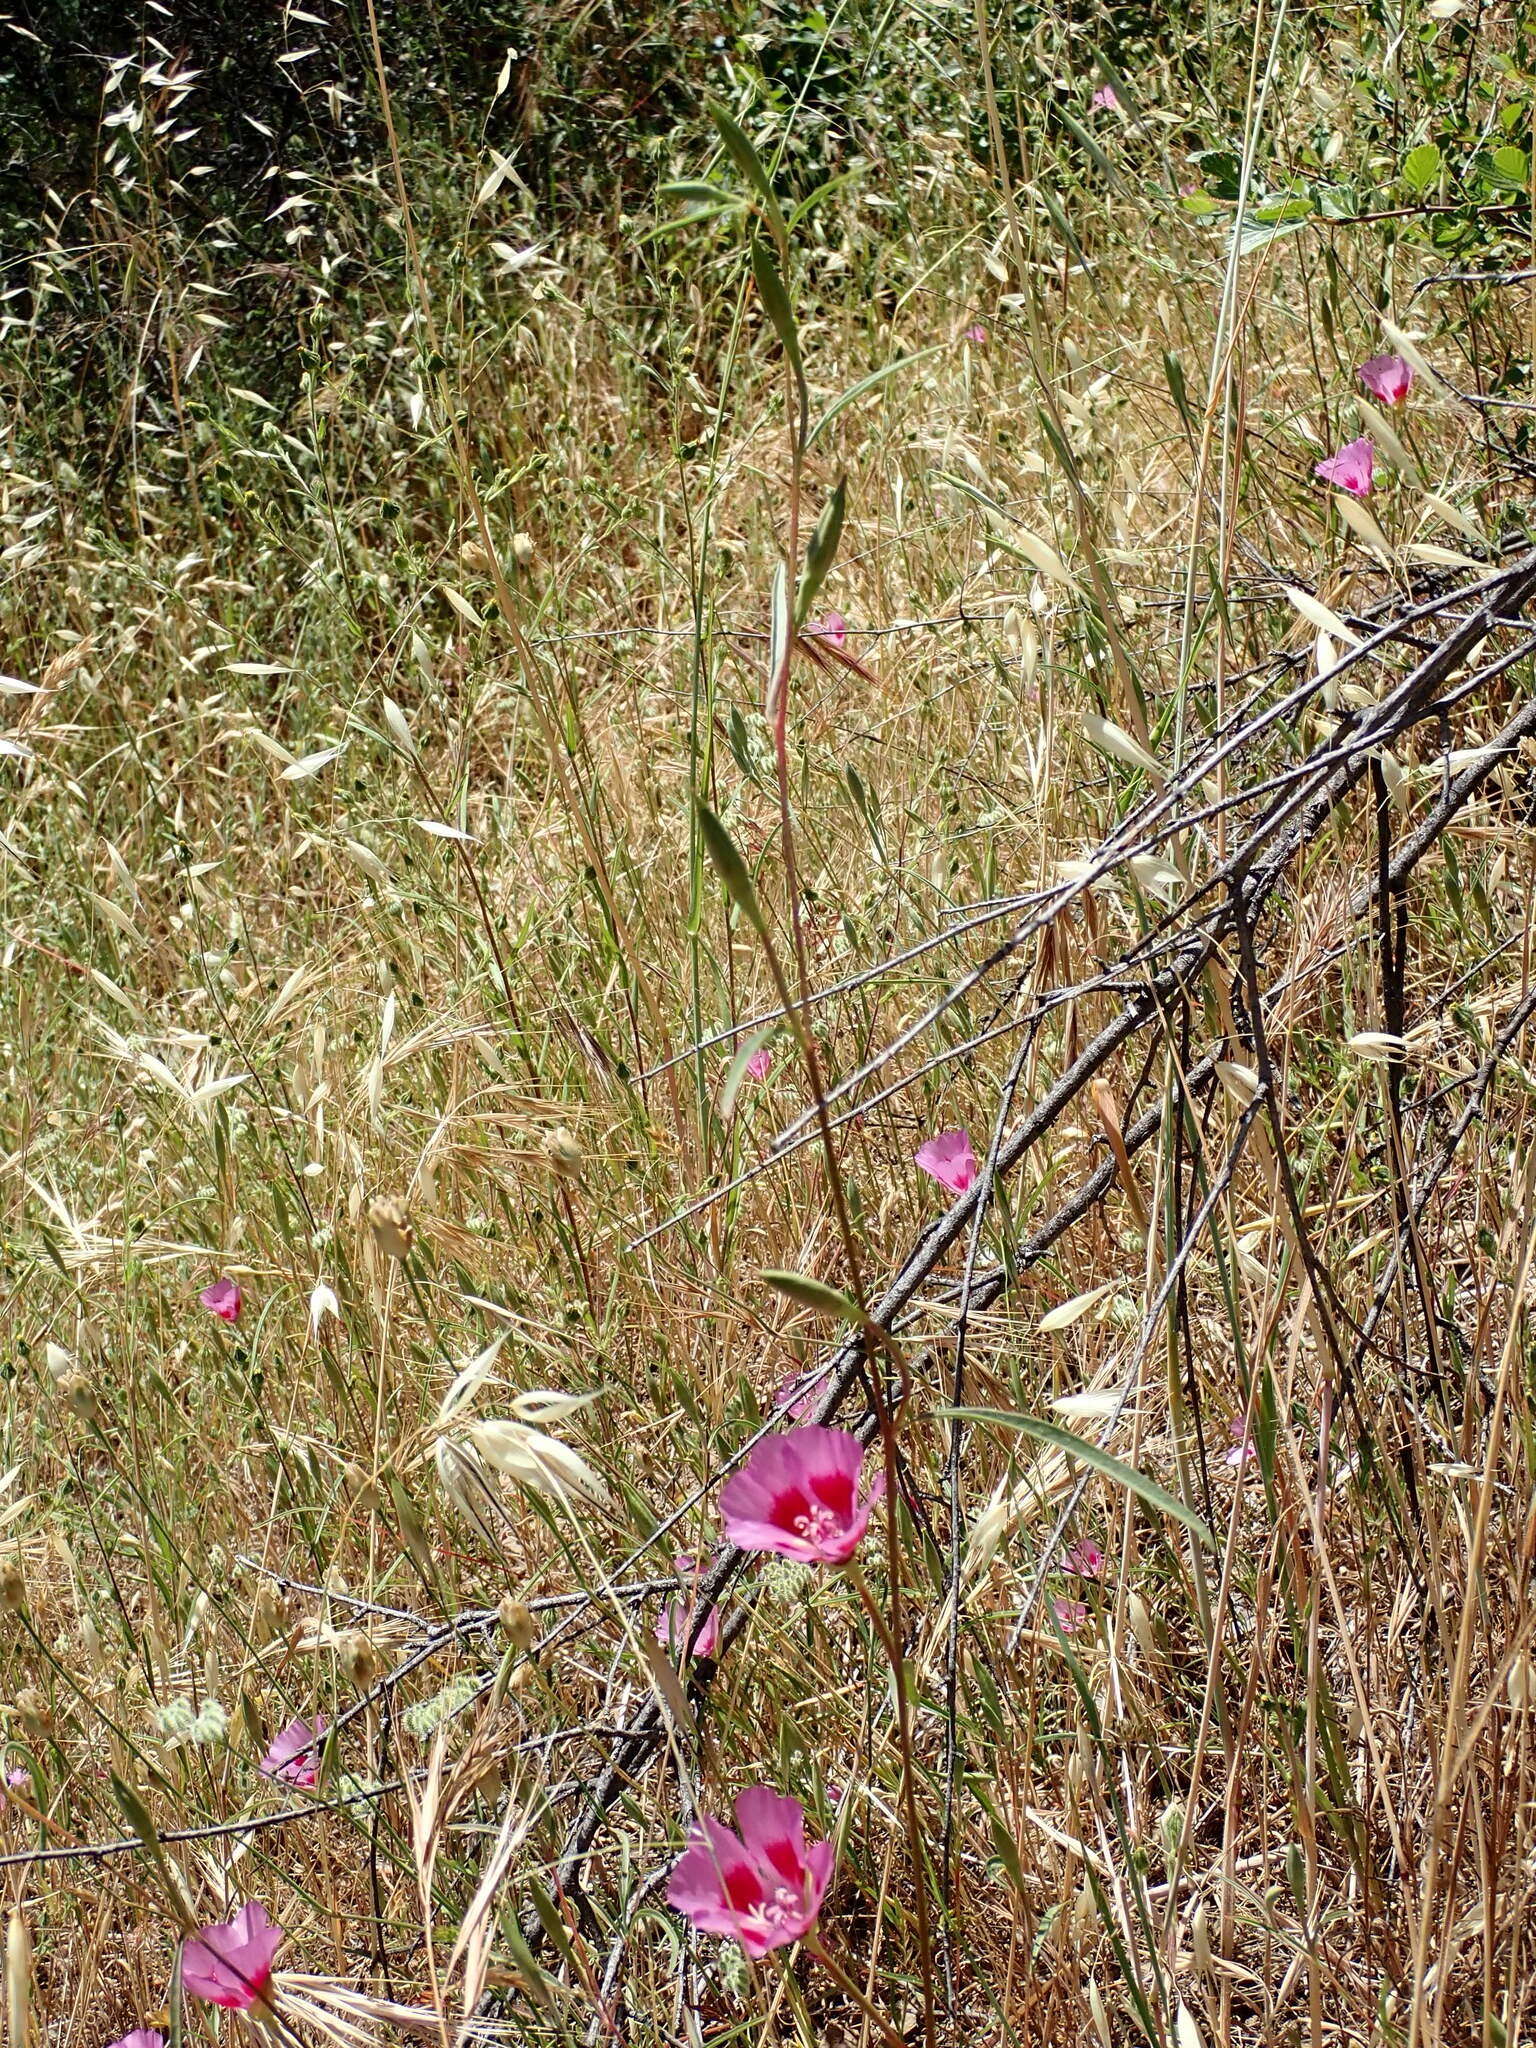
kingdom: Plantae
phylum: Tracheophyta
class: Magnoliopsida
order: Myrtales
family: Onagraceae
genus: Clarkia
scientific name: Clarkia amoena
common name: Godetia
